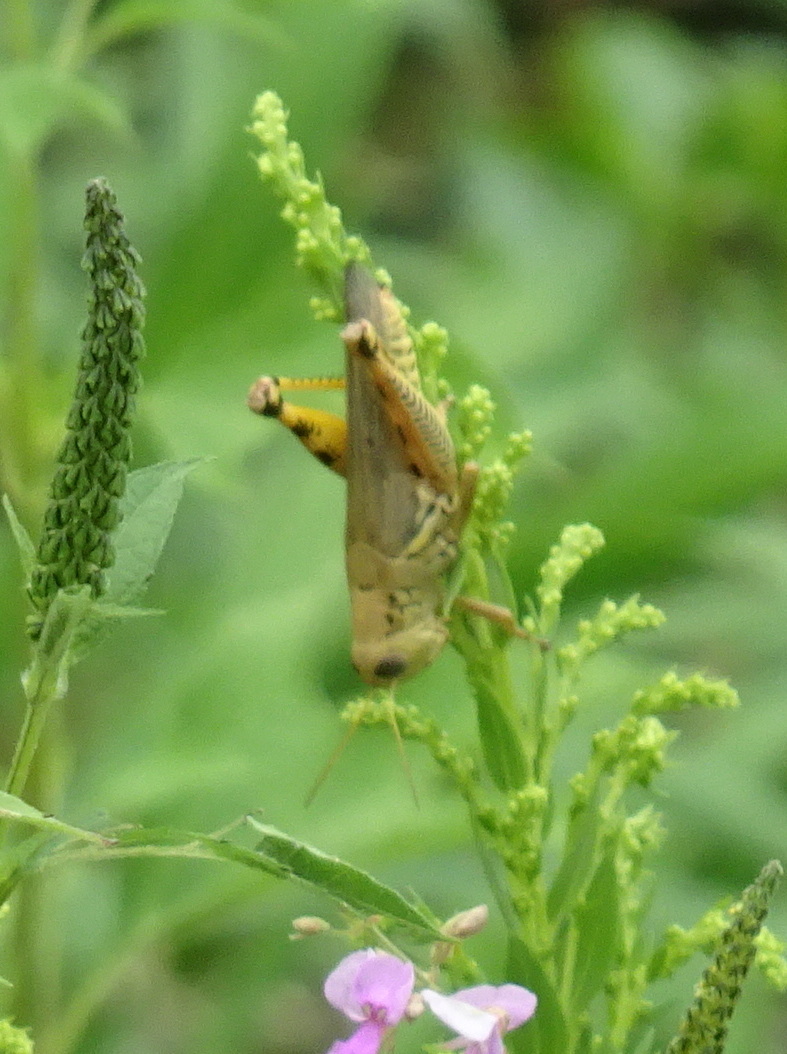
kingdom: Animalia
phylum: Arthropoda
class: Insecta
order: Orthoptera
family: Acrididae
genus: Melanoplus
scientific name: Melanoplus differentialis
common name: Differential grasshopper
